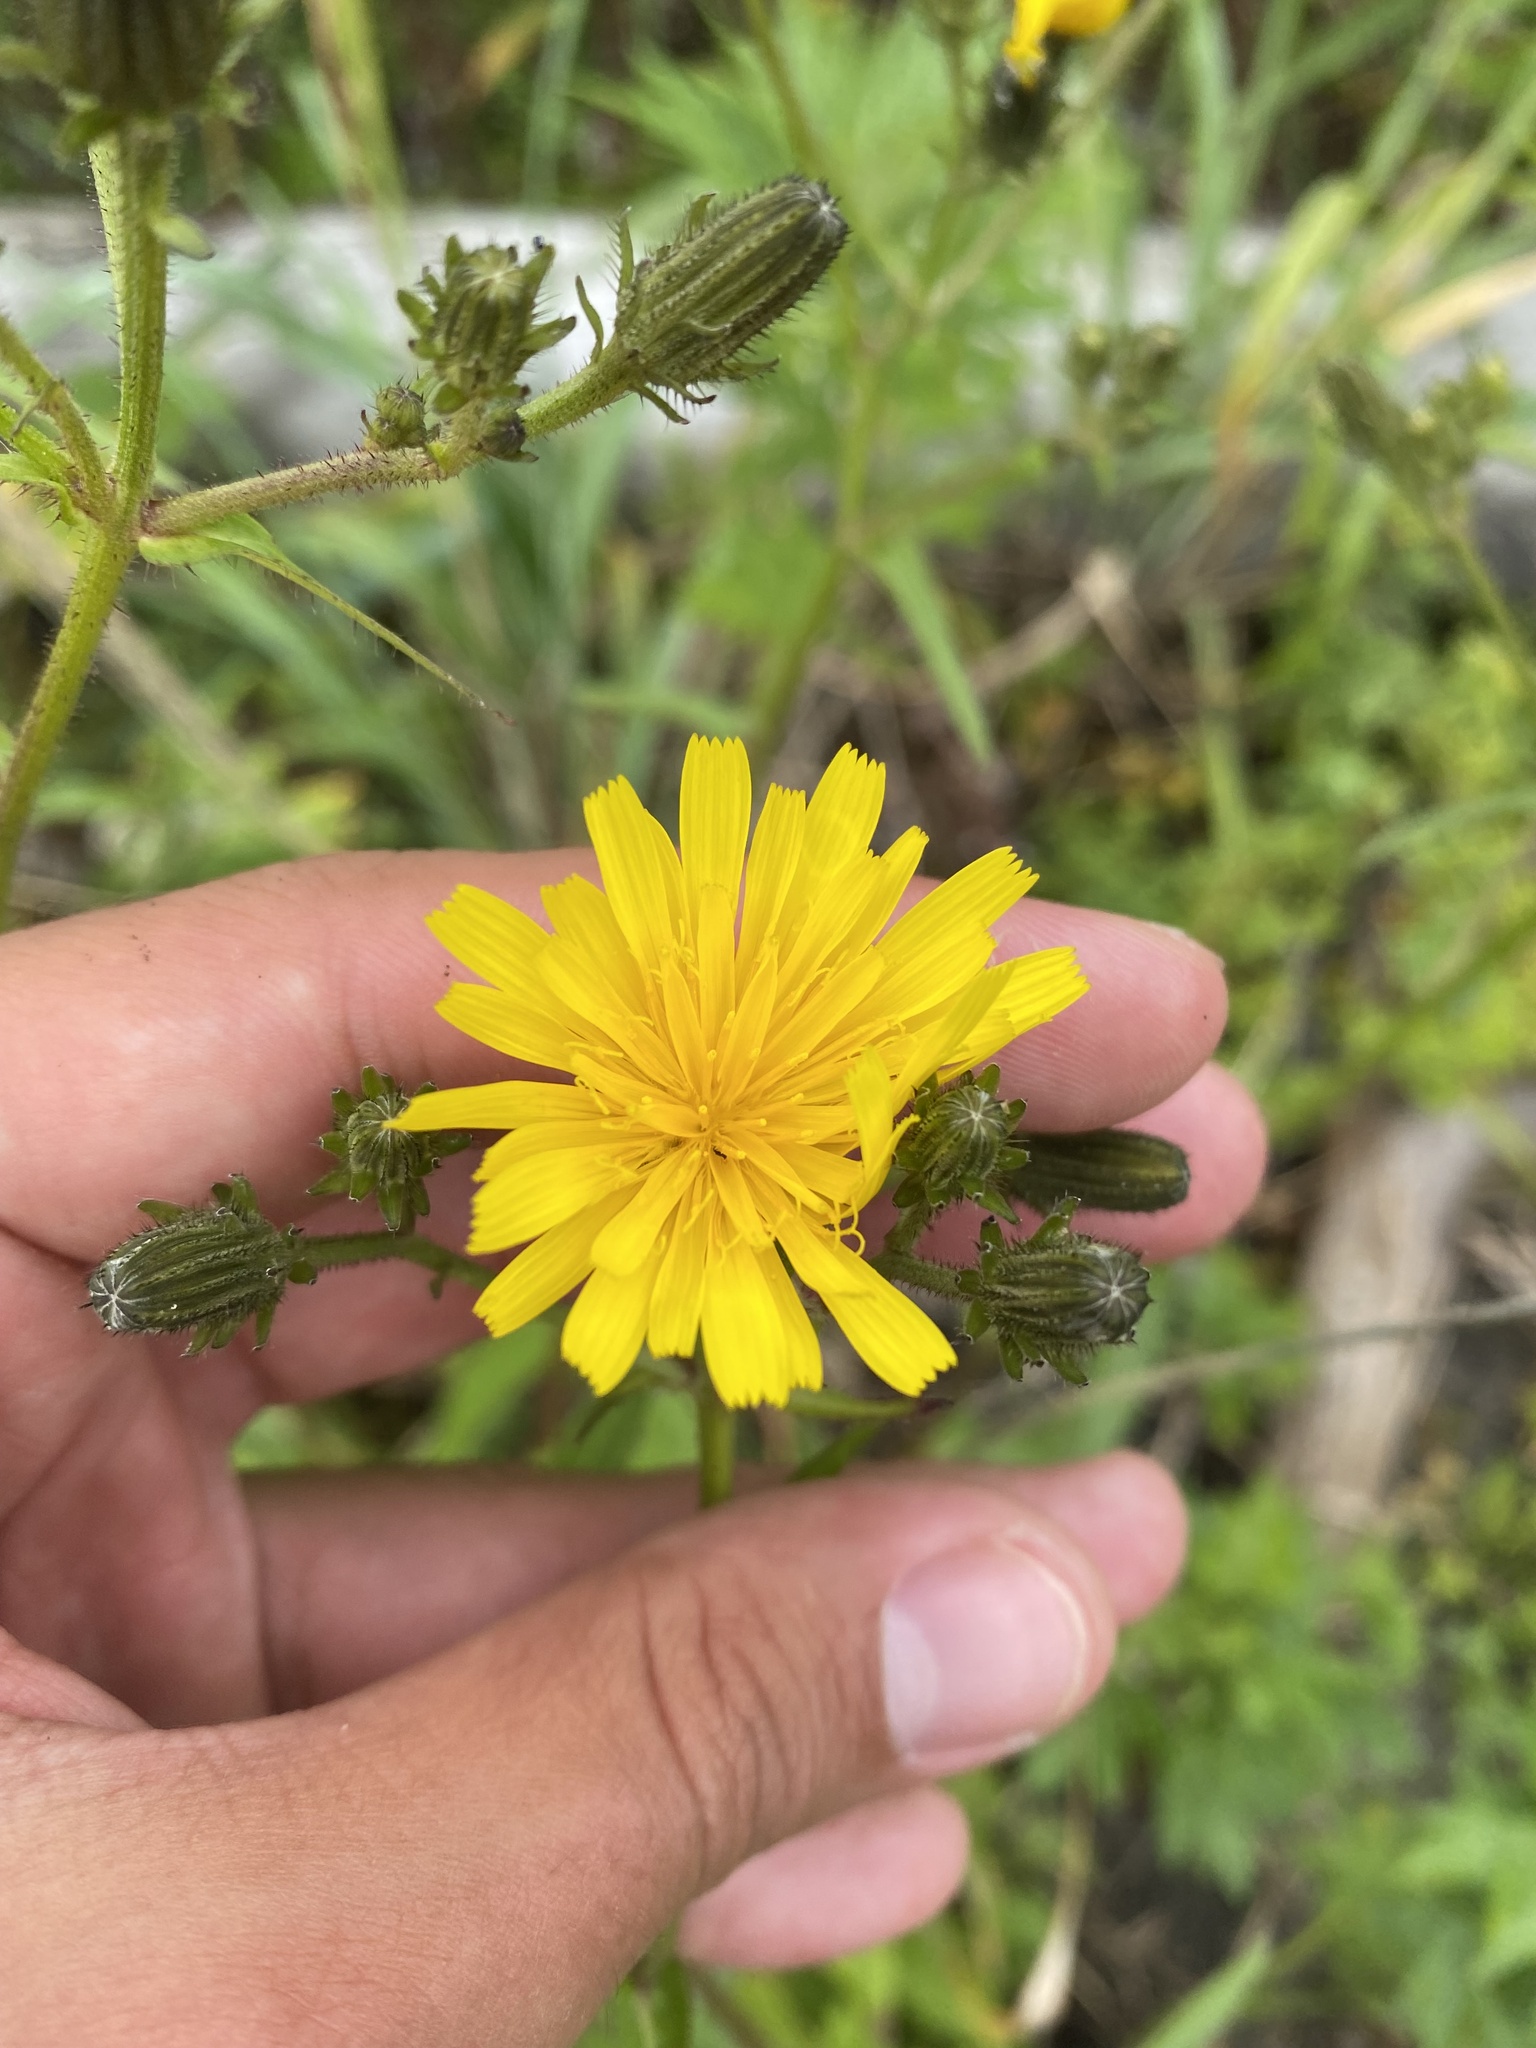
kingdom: Plantae
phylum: Tracheophyta
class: Magnoliopsida
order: Asterales
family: Asteraceae
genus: Picris
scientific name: Picris japonica
